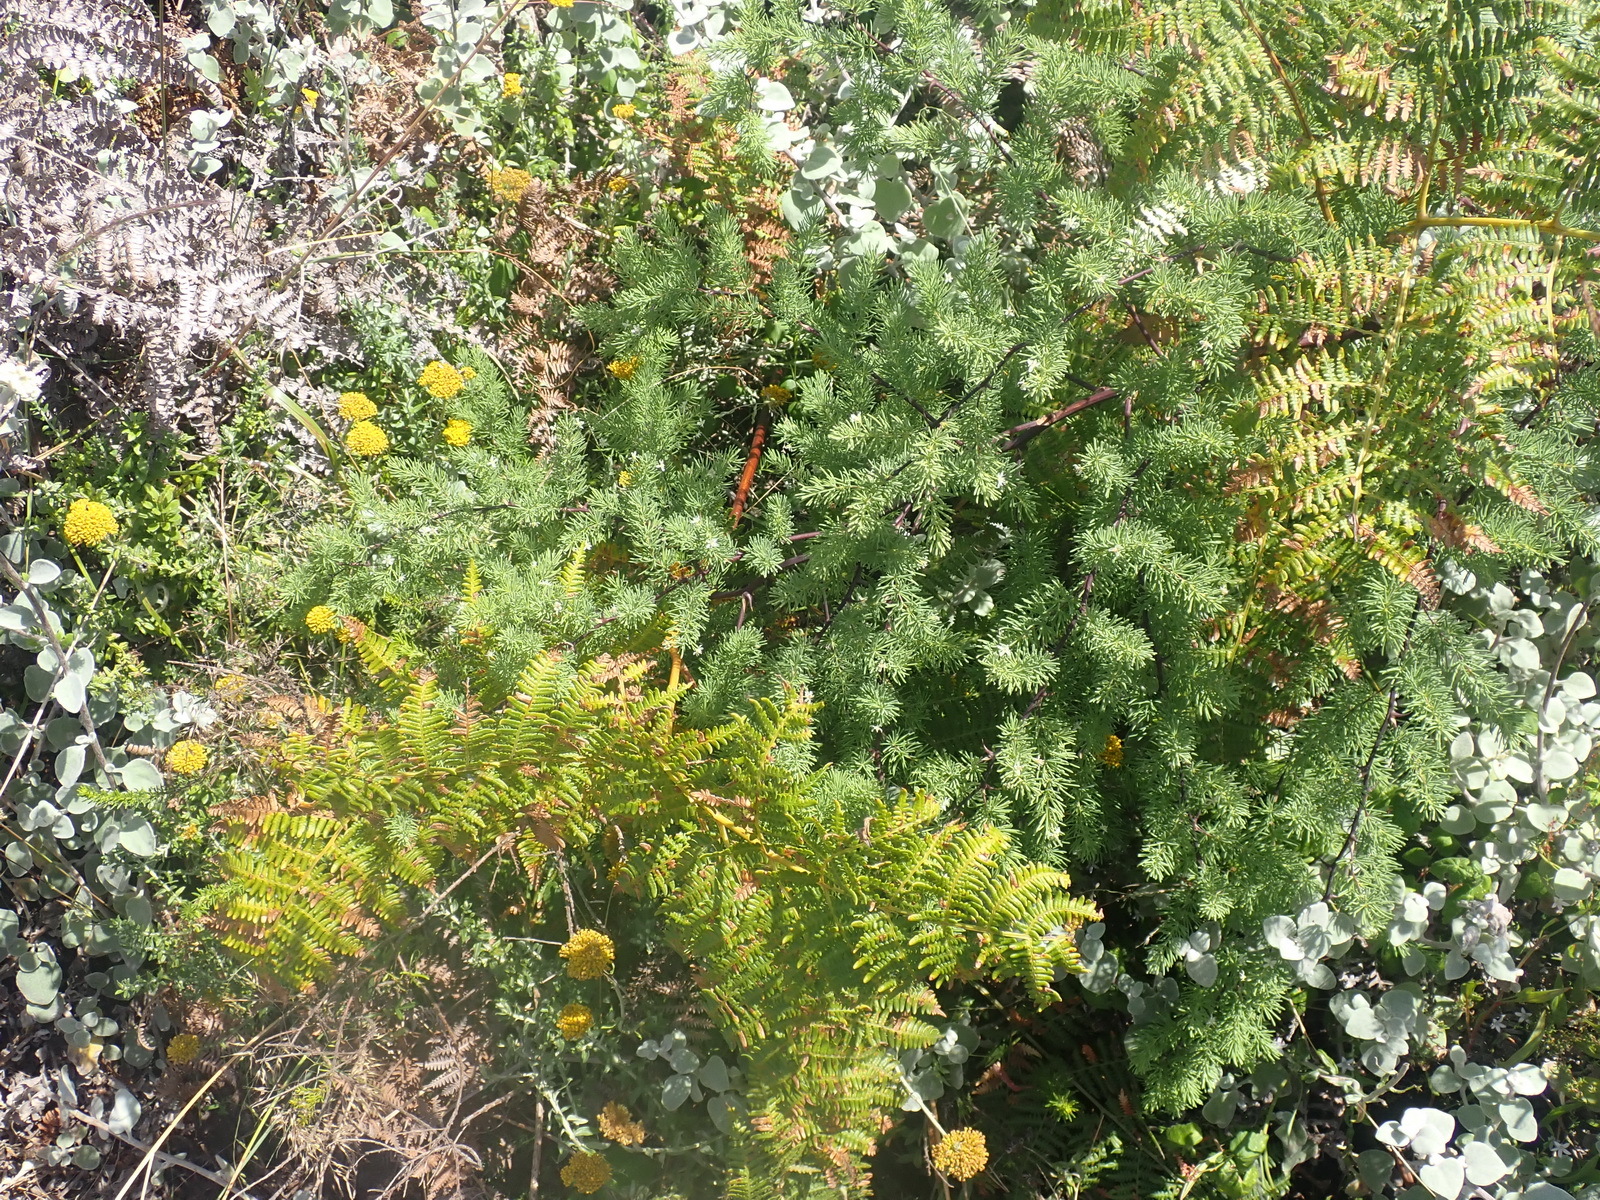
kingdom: Plantae
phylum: Tracheophyta
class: Liliopsida
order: Asparagales
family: Asparagaceae
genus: Asparagus
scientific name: Asparagus rubicundus
